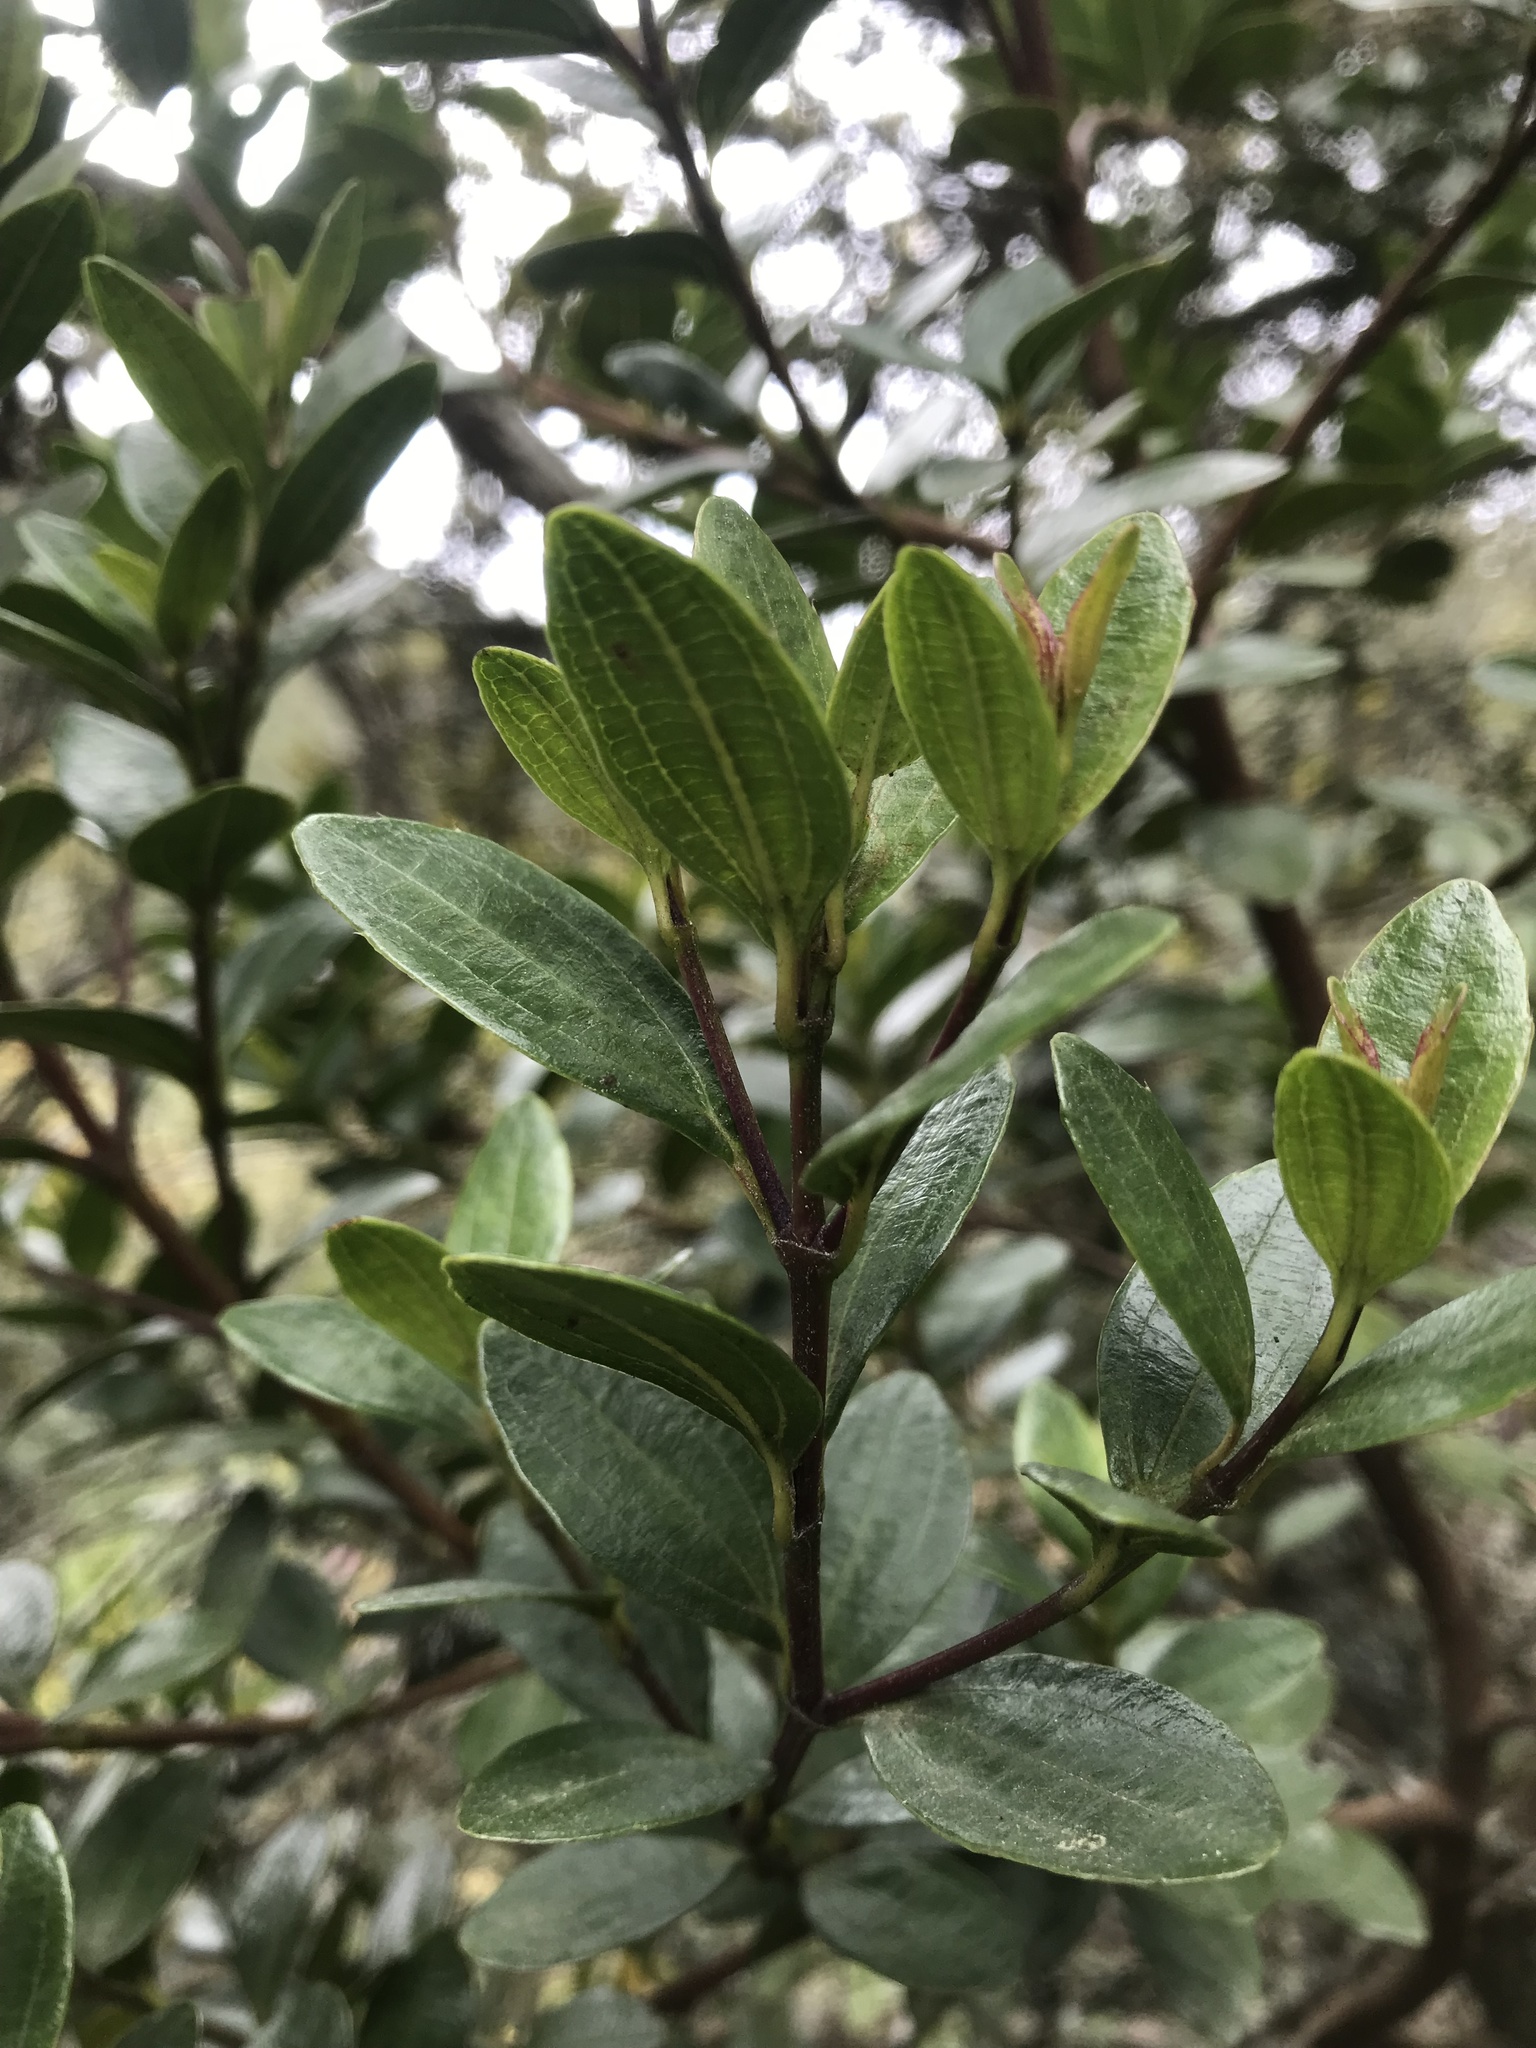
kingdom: Plantae
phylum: Tracheophyta
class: Magnoliopsida
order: Myrtales
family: Melastomataceae
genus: Miconia
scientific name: Miconia ligustrina
